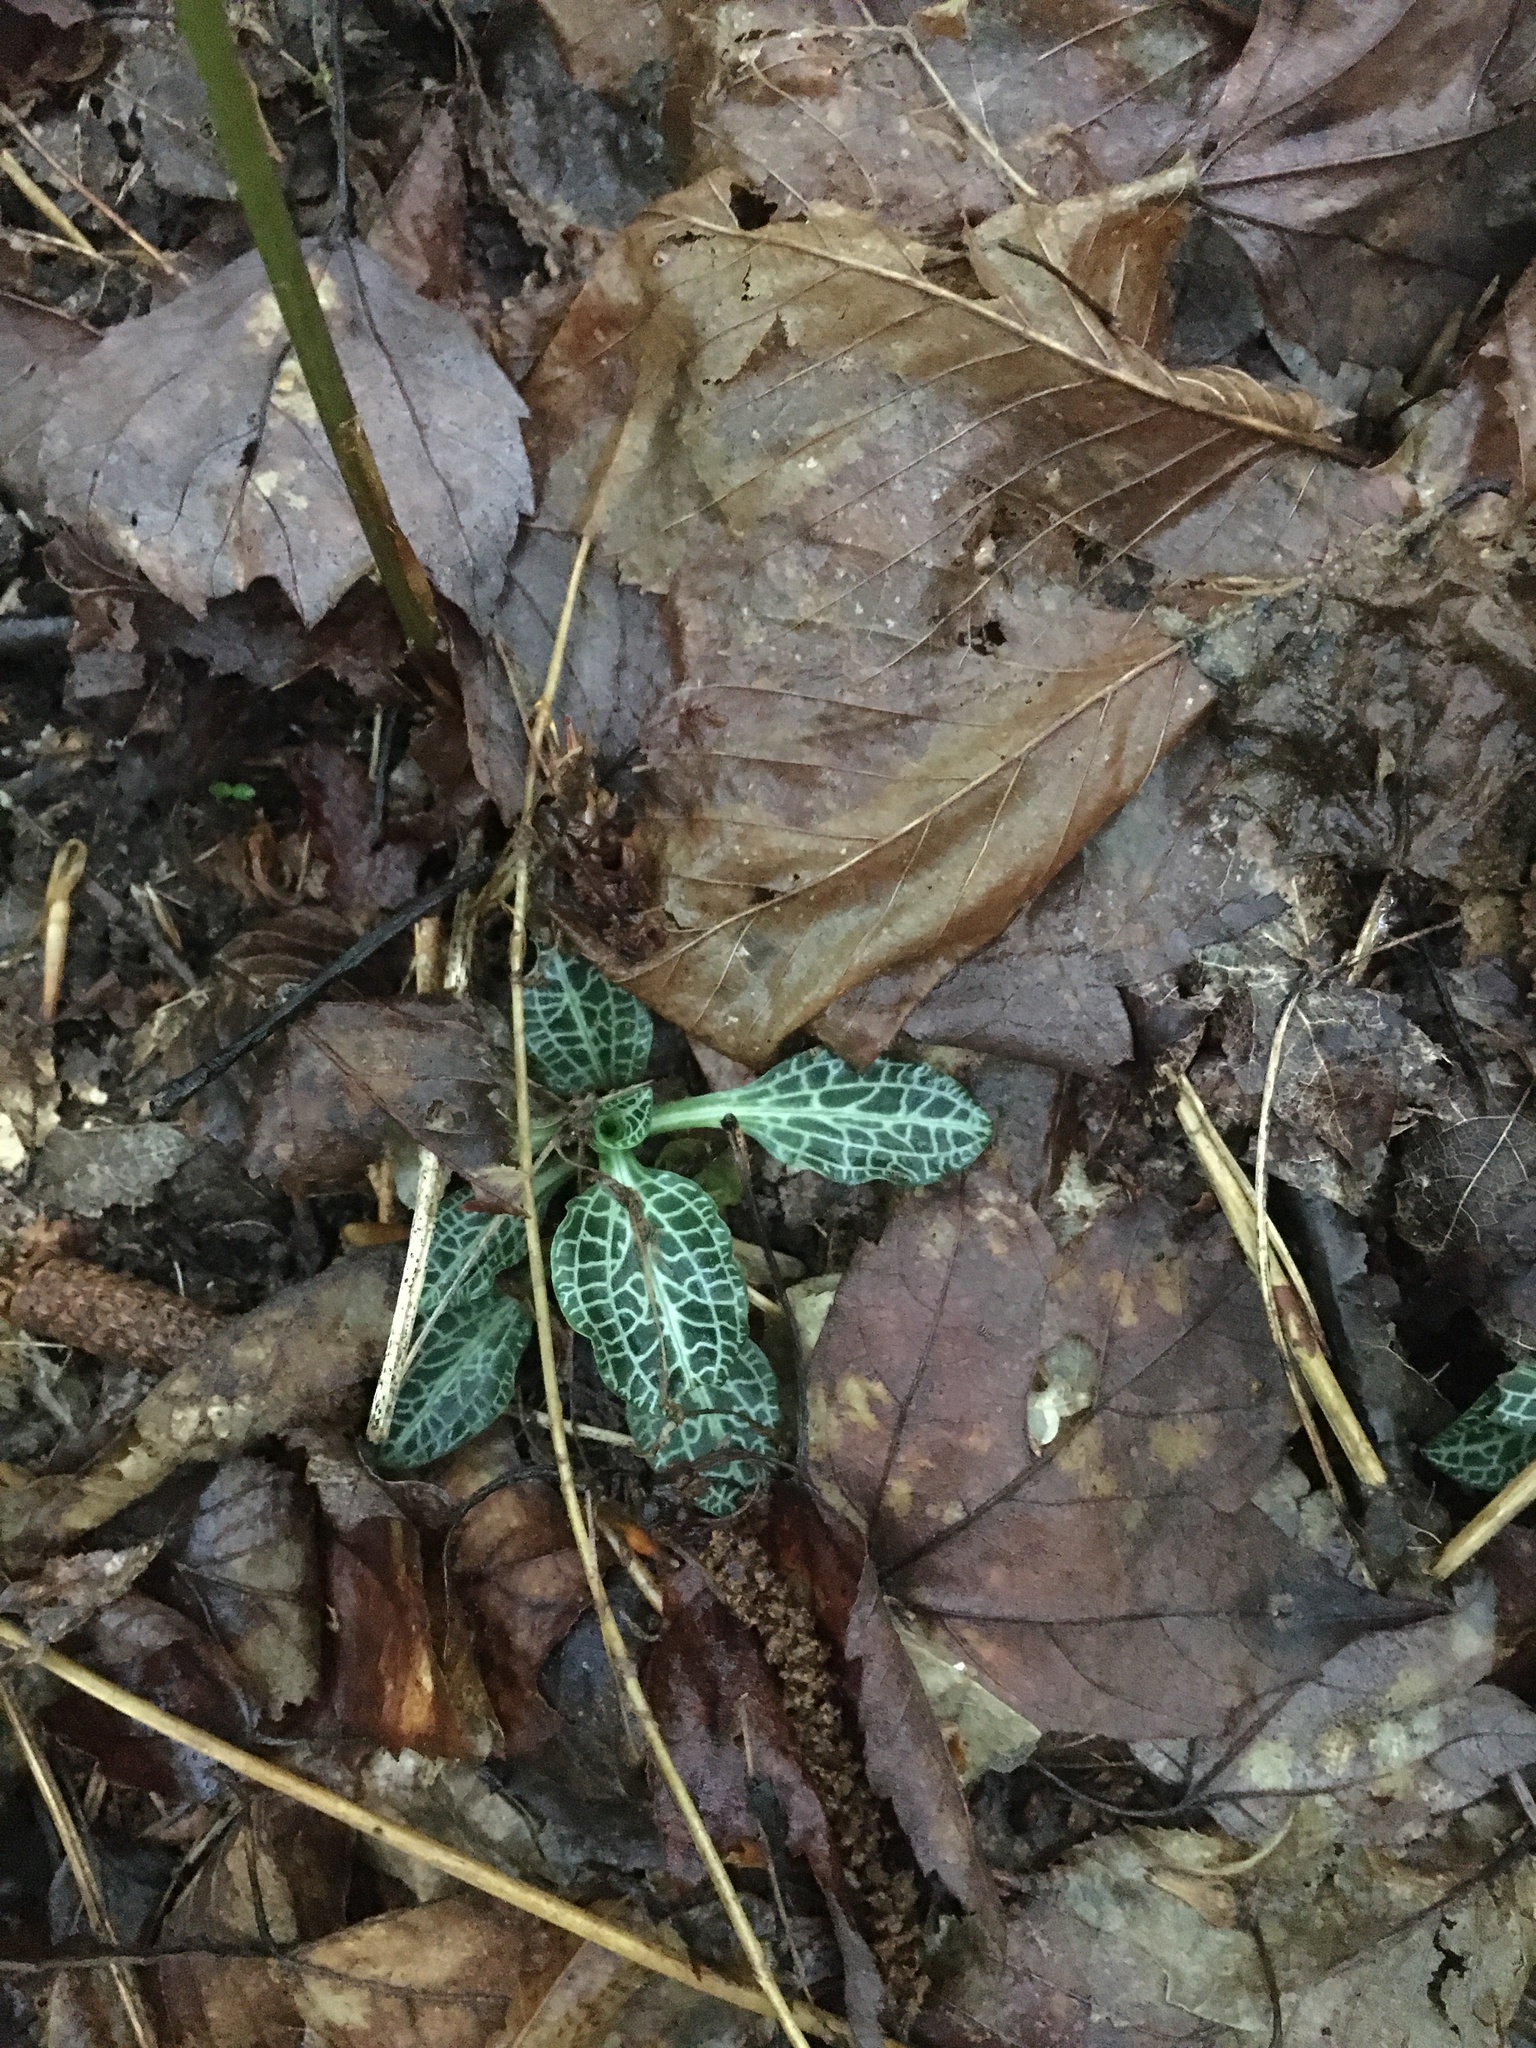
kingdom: Plantae
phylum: Tracheophyta
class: Liliopsida
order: Asparagales
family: Orchidaceae
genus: Goodyera
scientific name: Goodyera pubescens
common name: Downy rattlesnake-plantain
